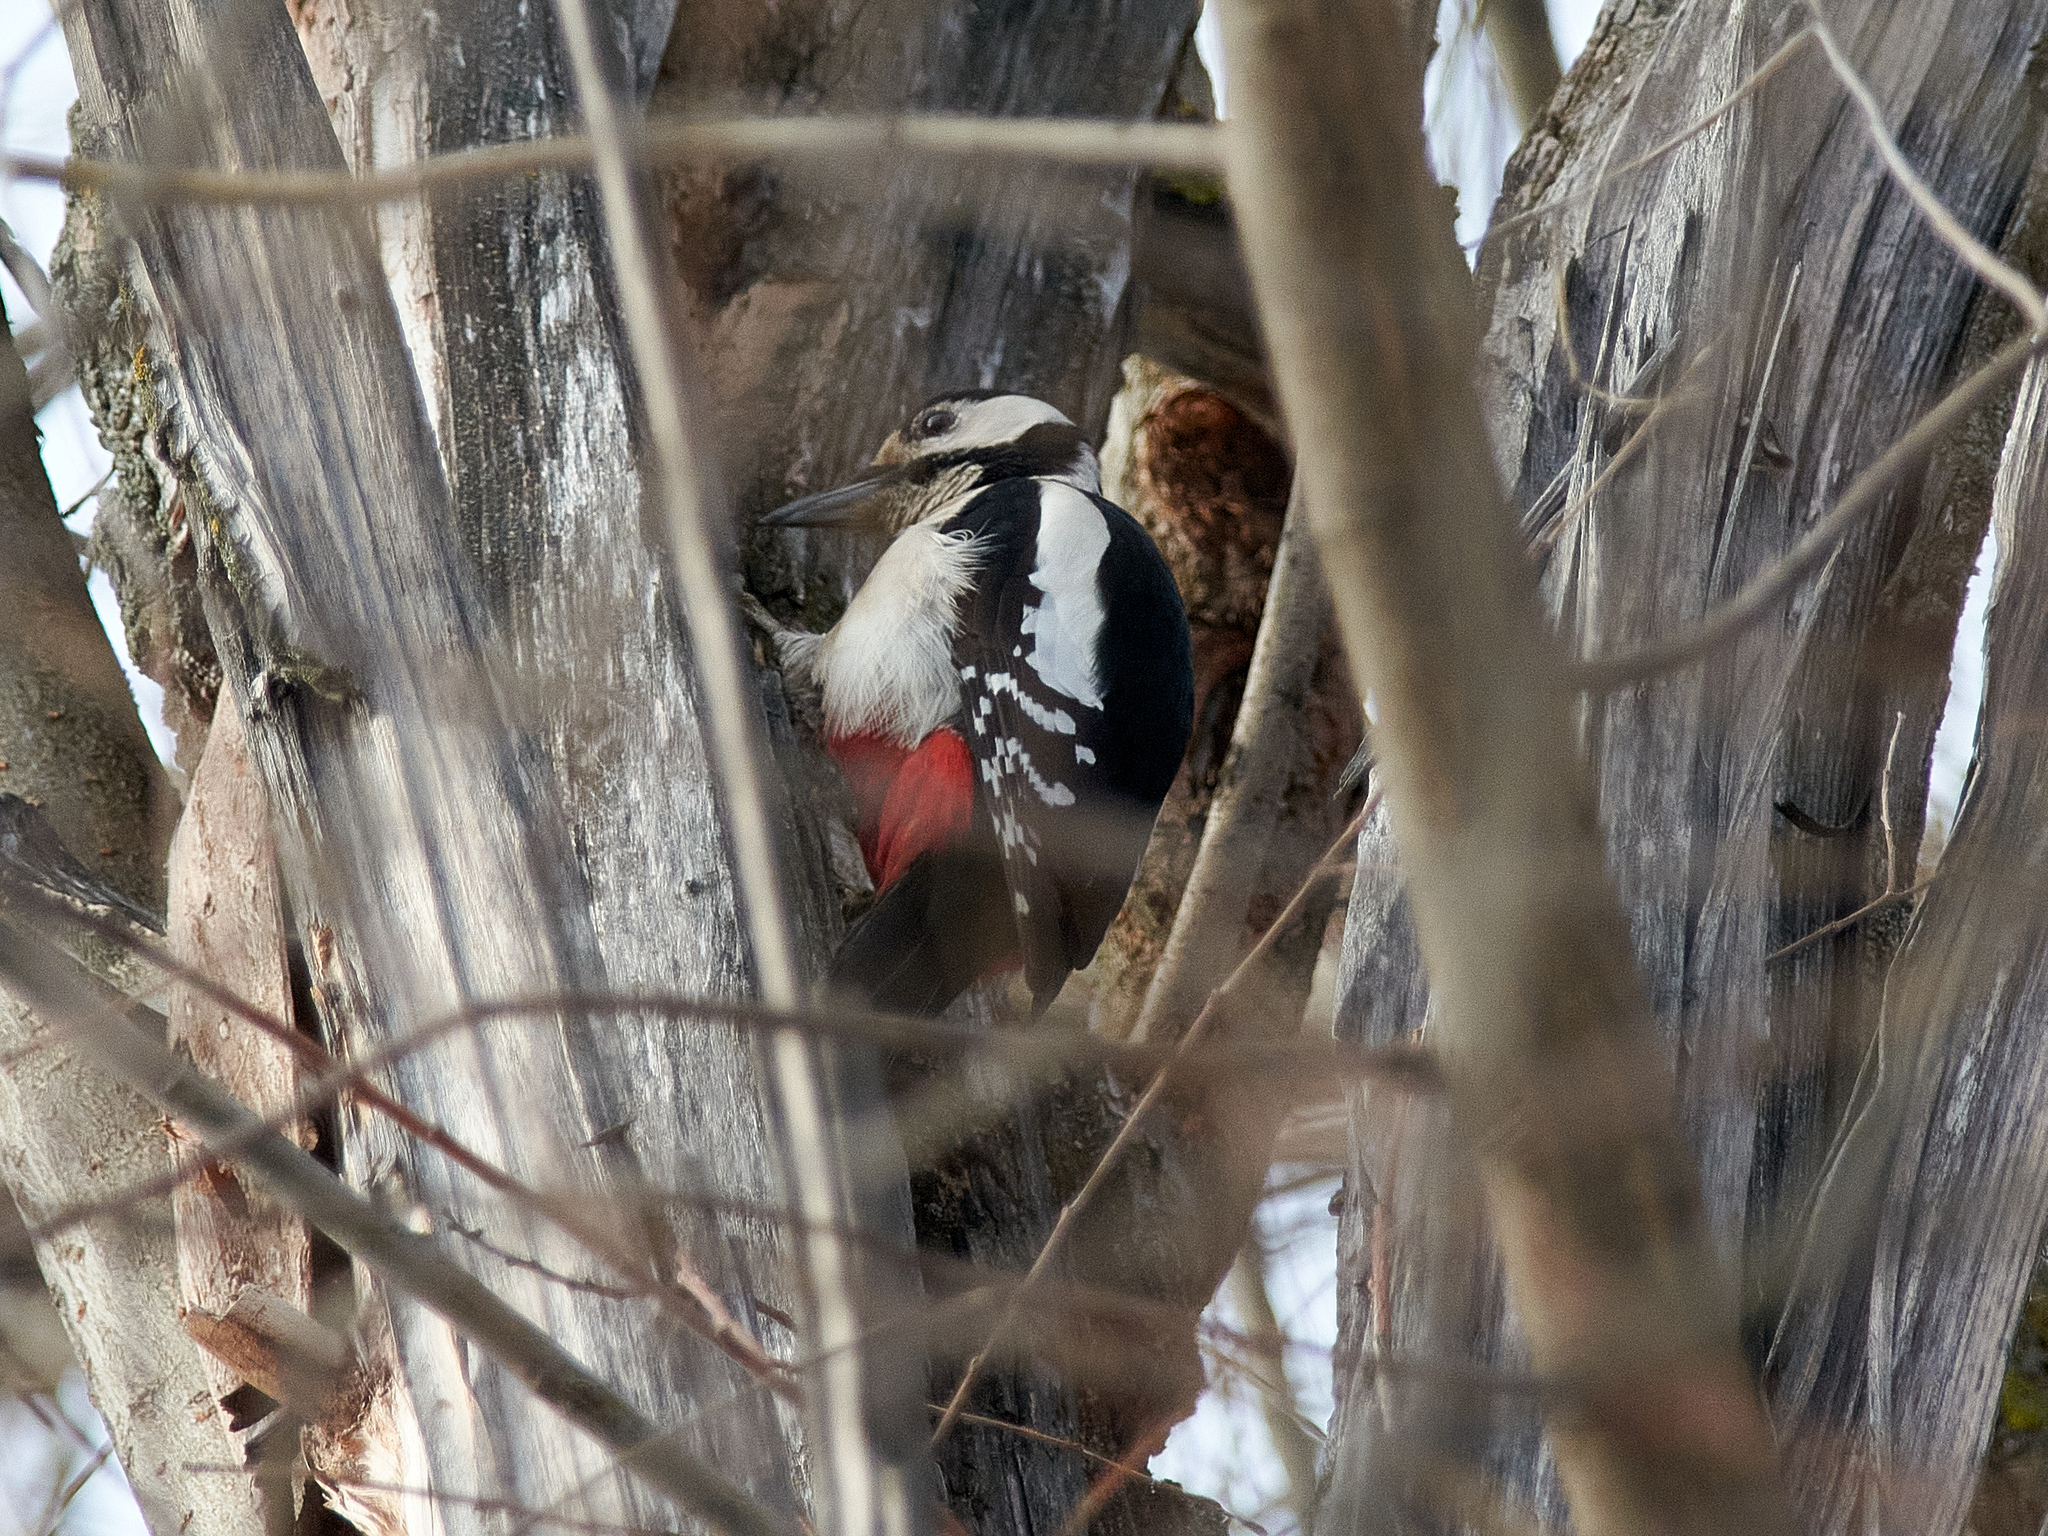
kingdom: Animalia
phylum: Chordata
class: Aves
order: Piciformes
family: Picidae
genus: Dendrocopos
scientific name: Dendrocopos major
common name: Great spotted woodpecker
